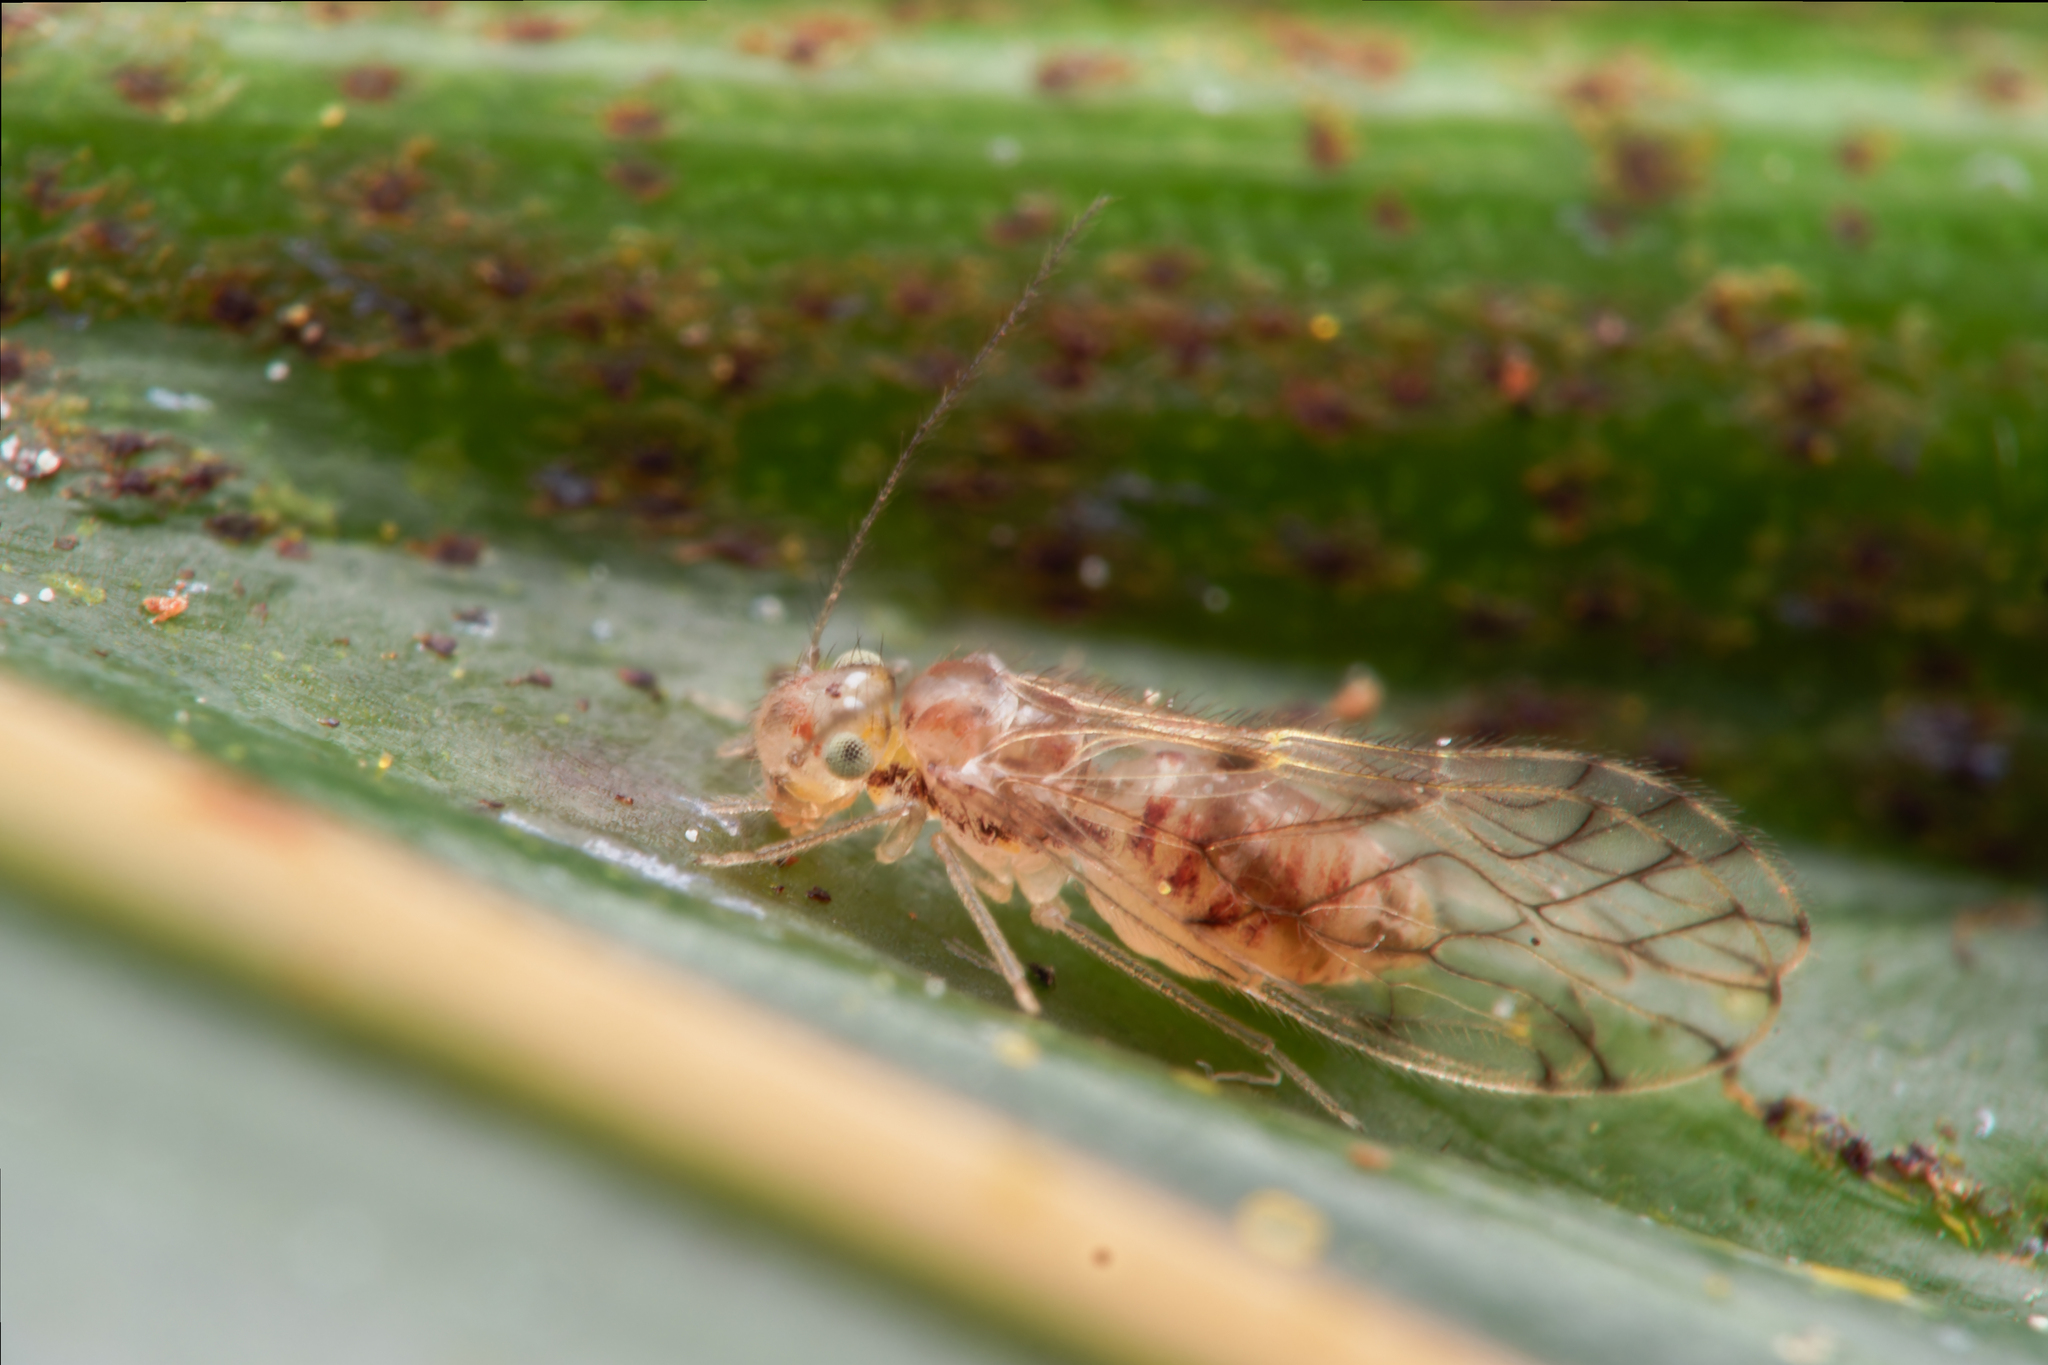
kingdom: Animalia
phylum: Arthropoda
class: Insecta
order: Psocodea
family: Pseudocaeciliidae
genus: Lobocaecilius
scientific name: Lobocaecilius monicus
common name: Barklice
